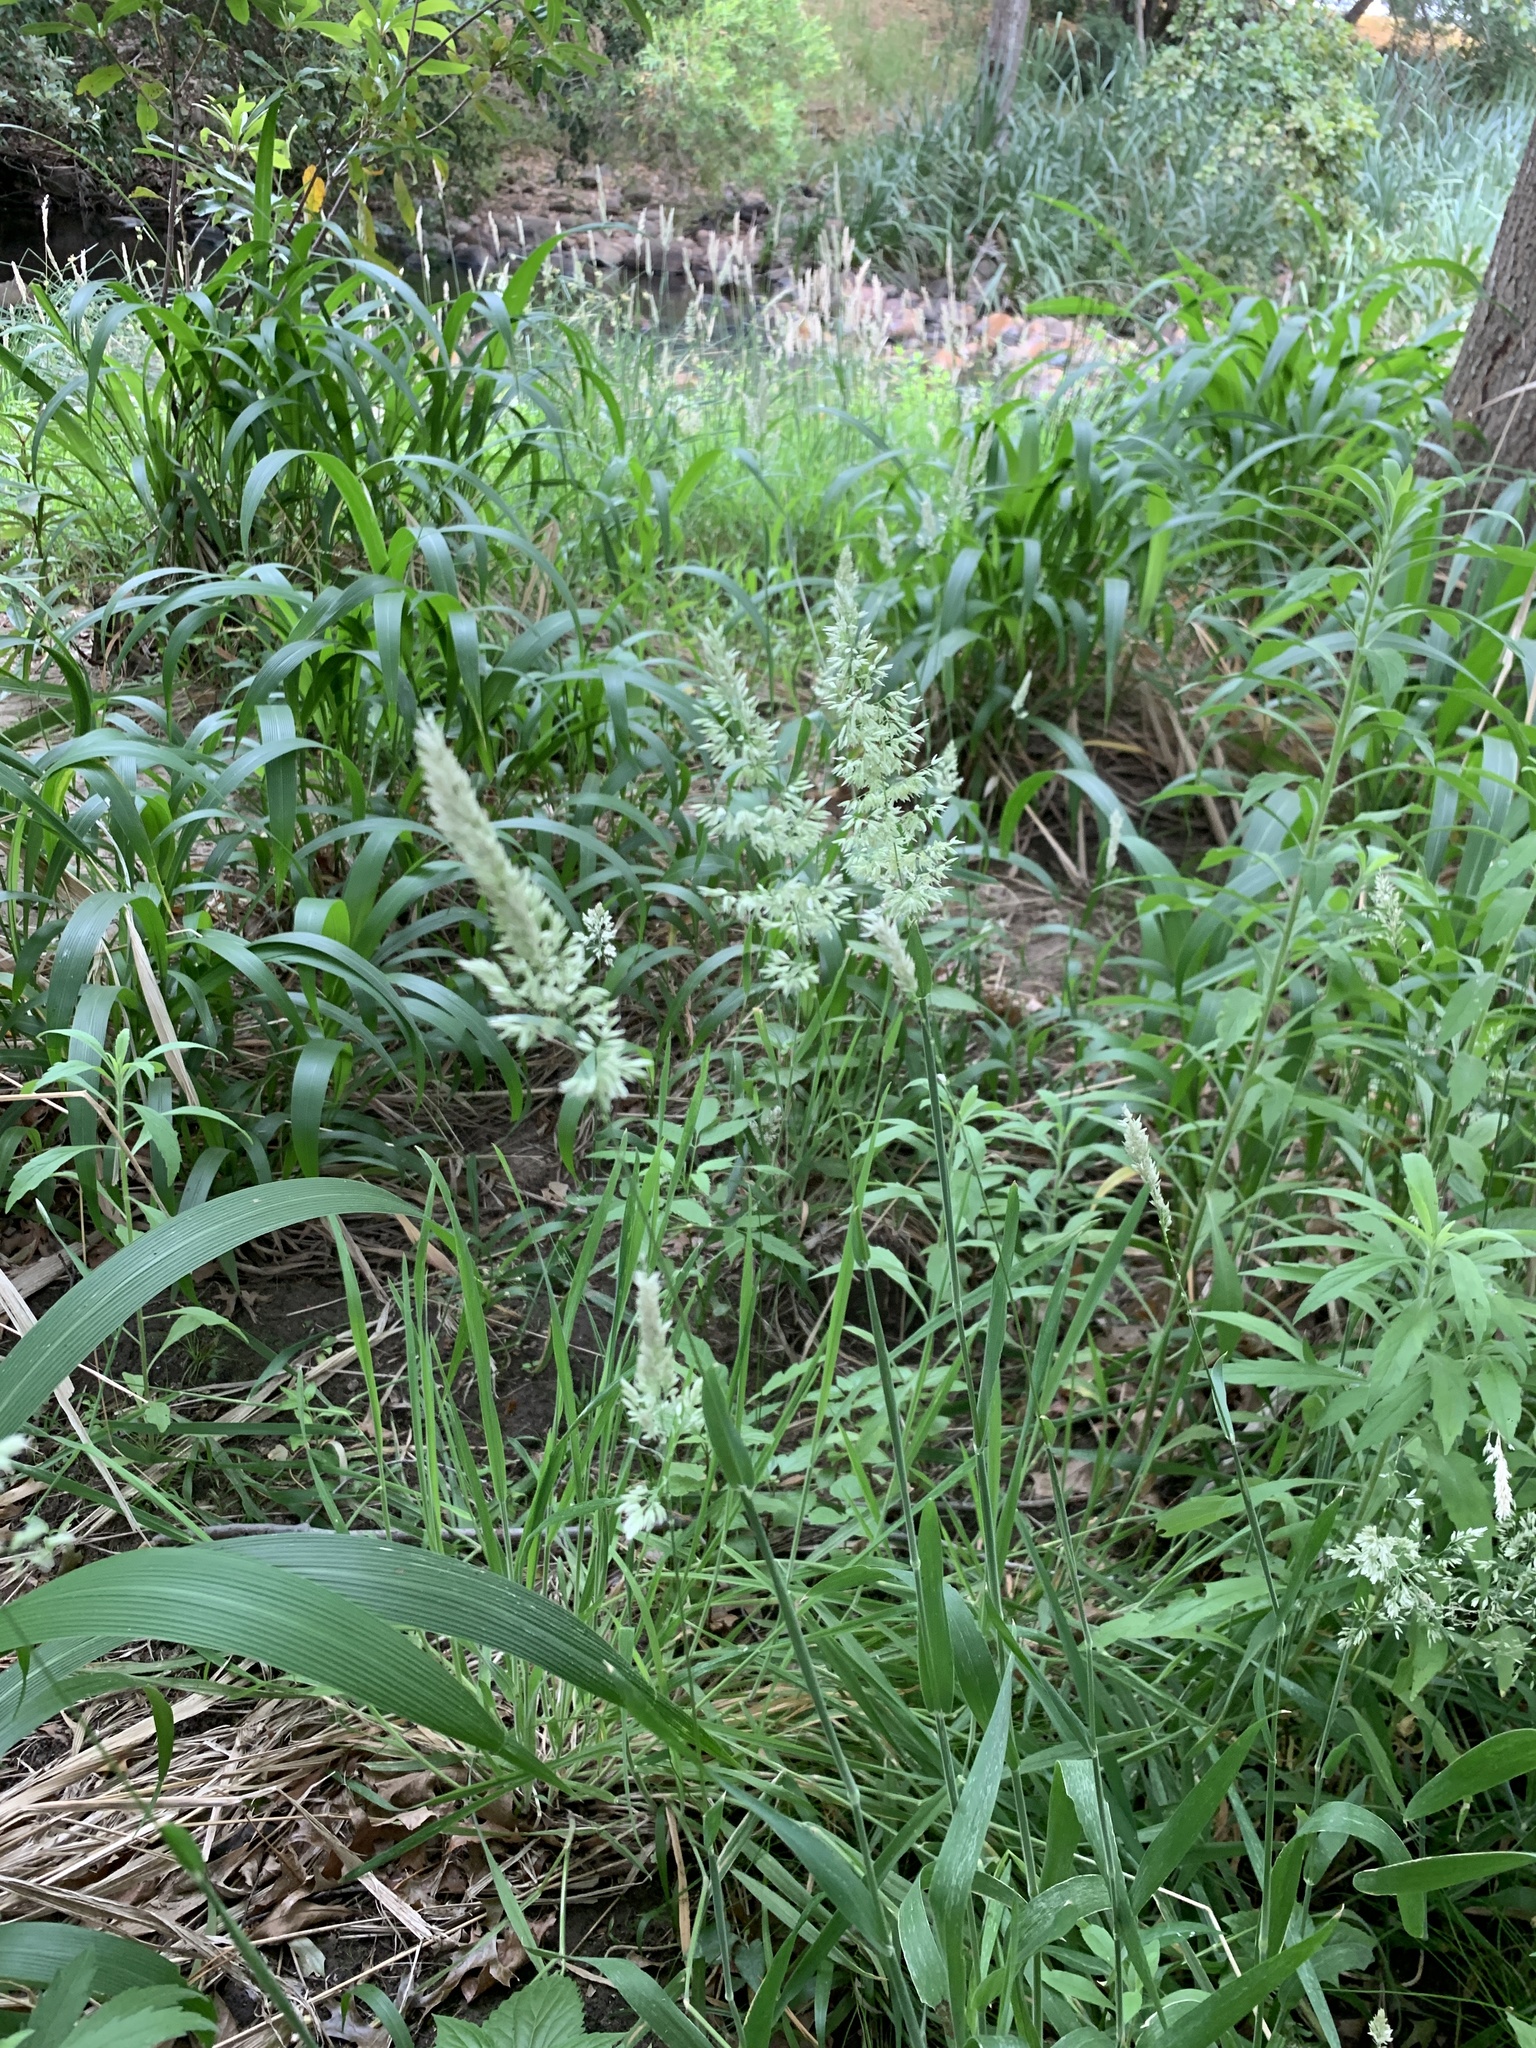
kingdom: Plantae
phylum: Tracheophyta
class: Liliopsida
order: Poales
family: Poaceae
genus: Holcus
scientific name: Holcus lanatus
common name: Yorkshire-fog
